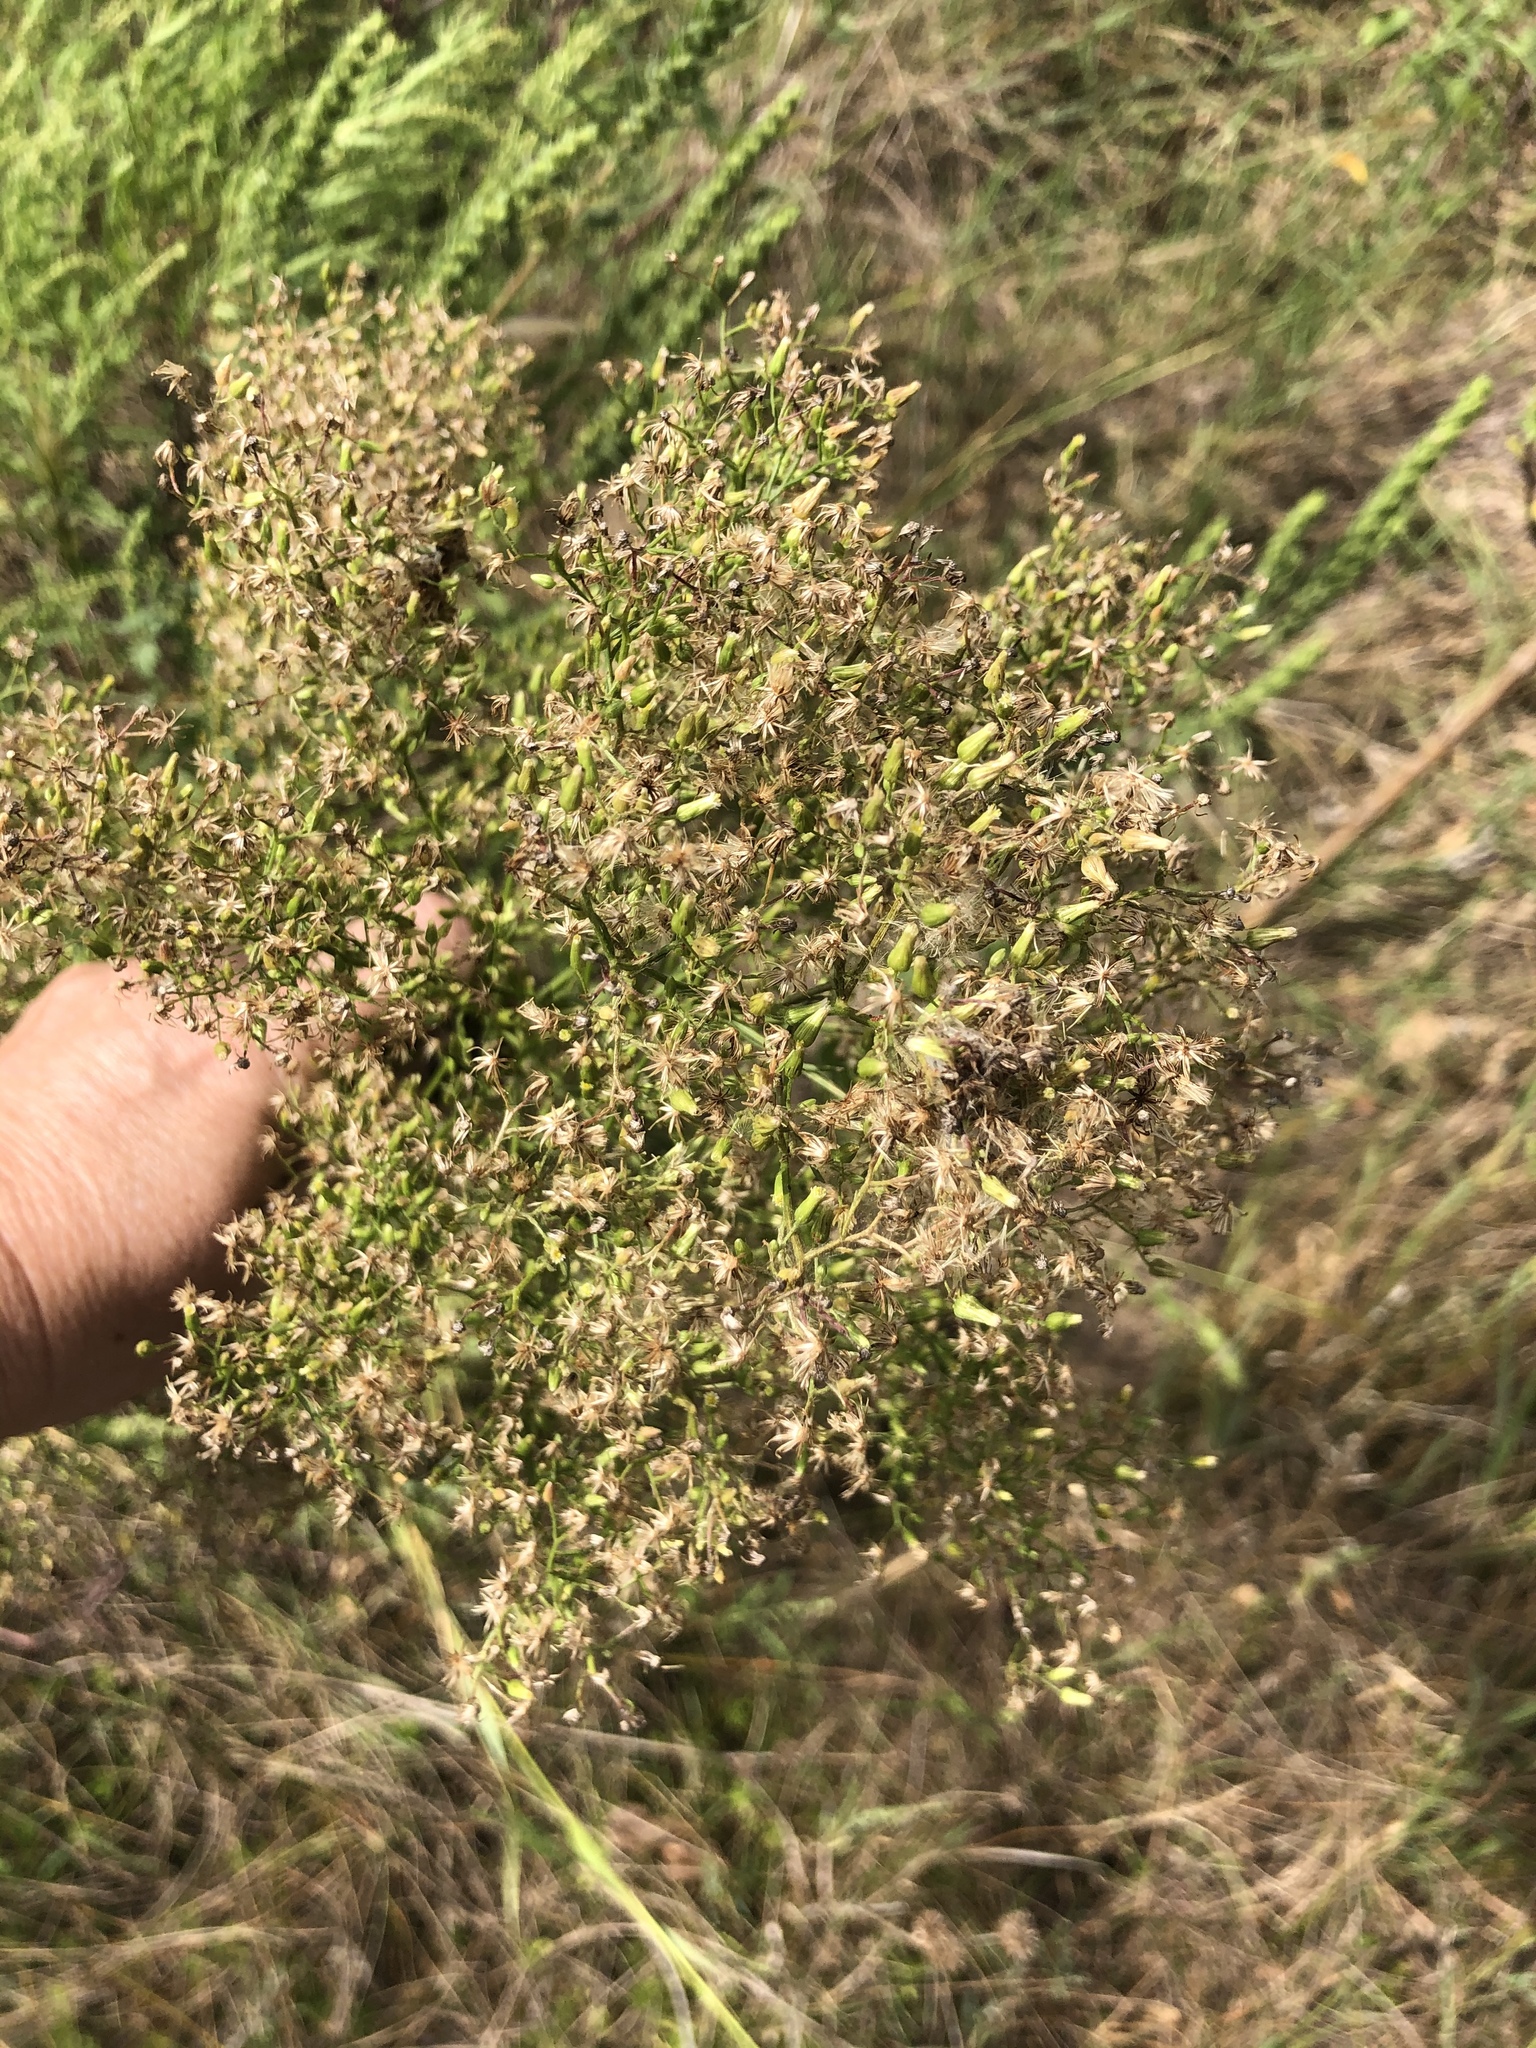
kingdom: Plantae
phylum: Tracheophyta
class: Magnoliopsida
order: Asterales
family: Asteraceae
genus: Baccharis
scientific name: Baccharis neglecta
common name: Roosevelt-weed
